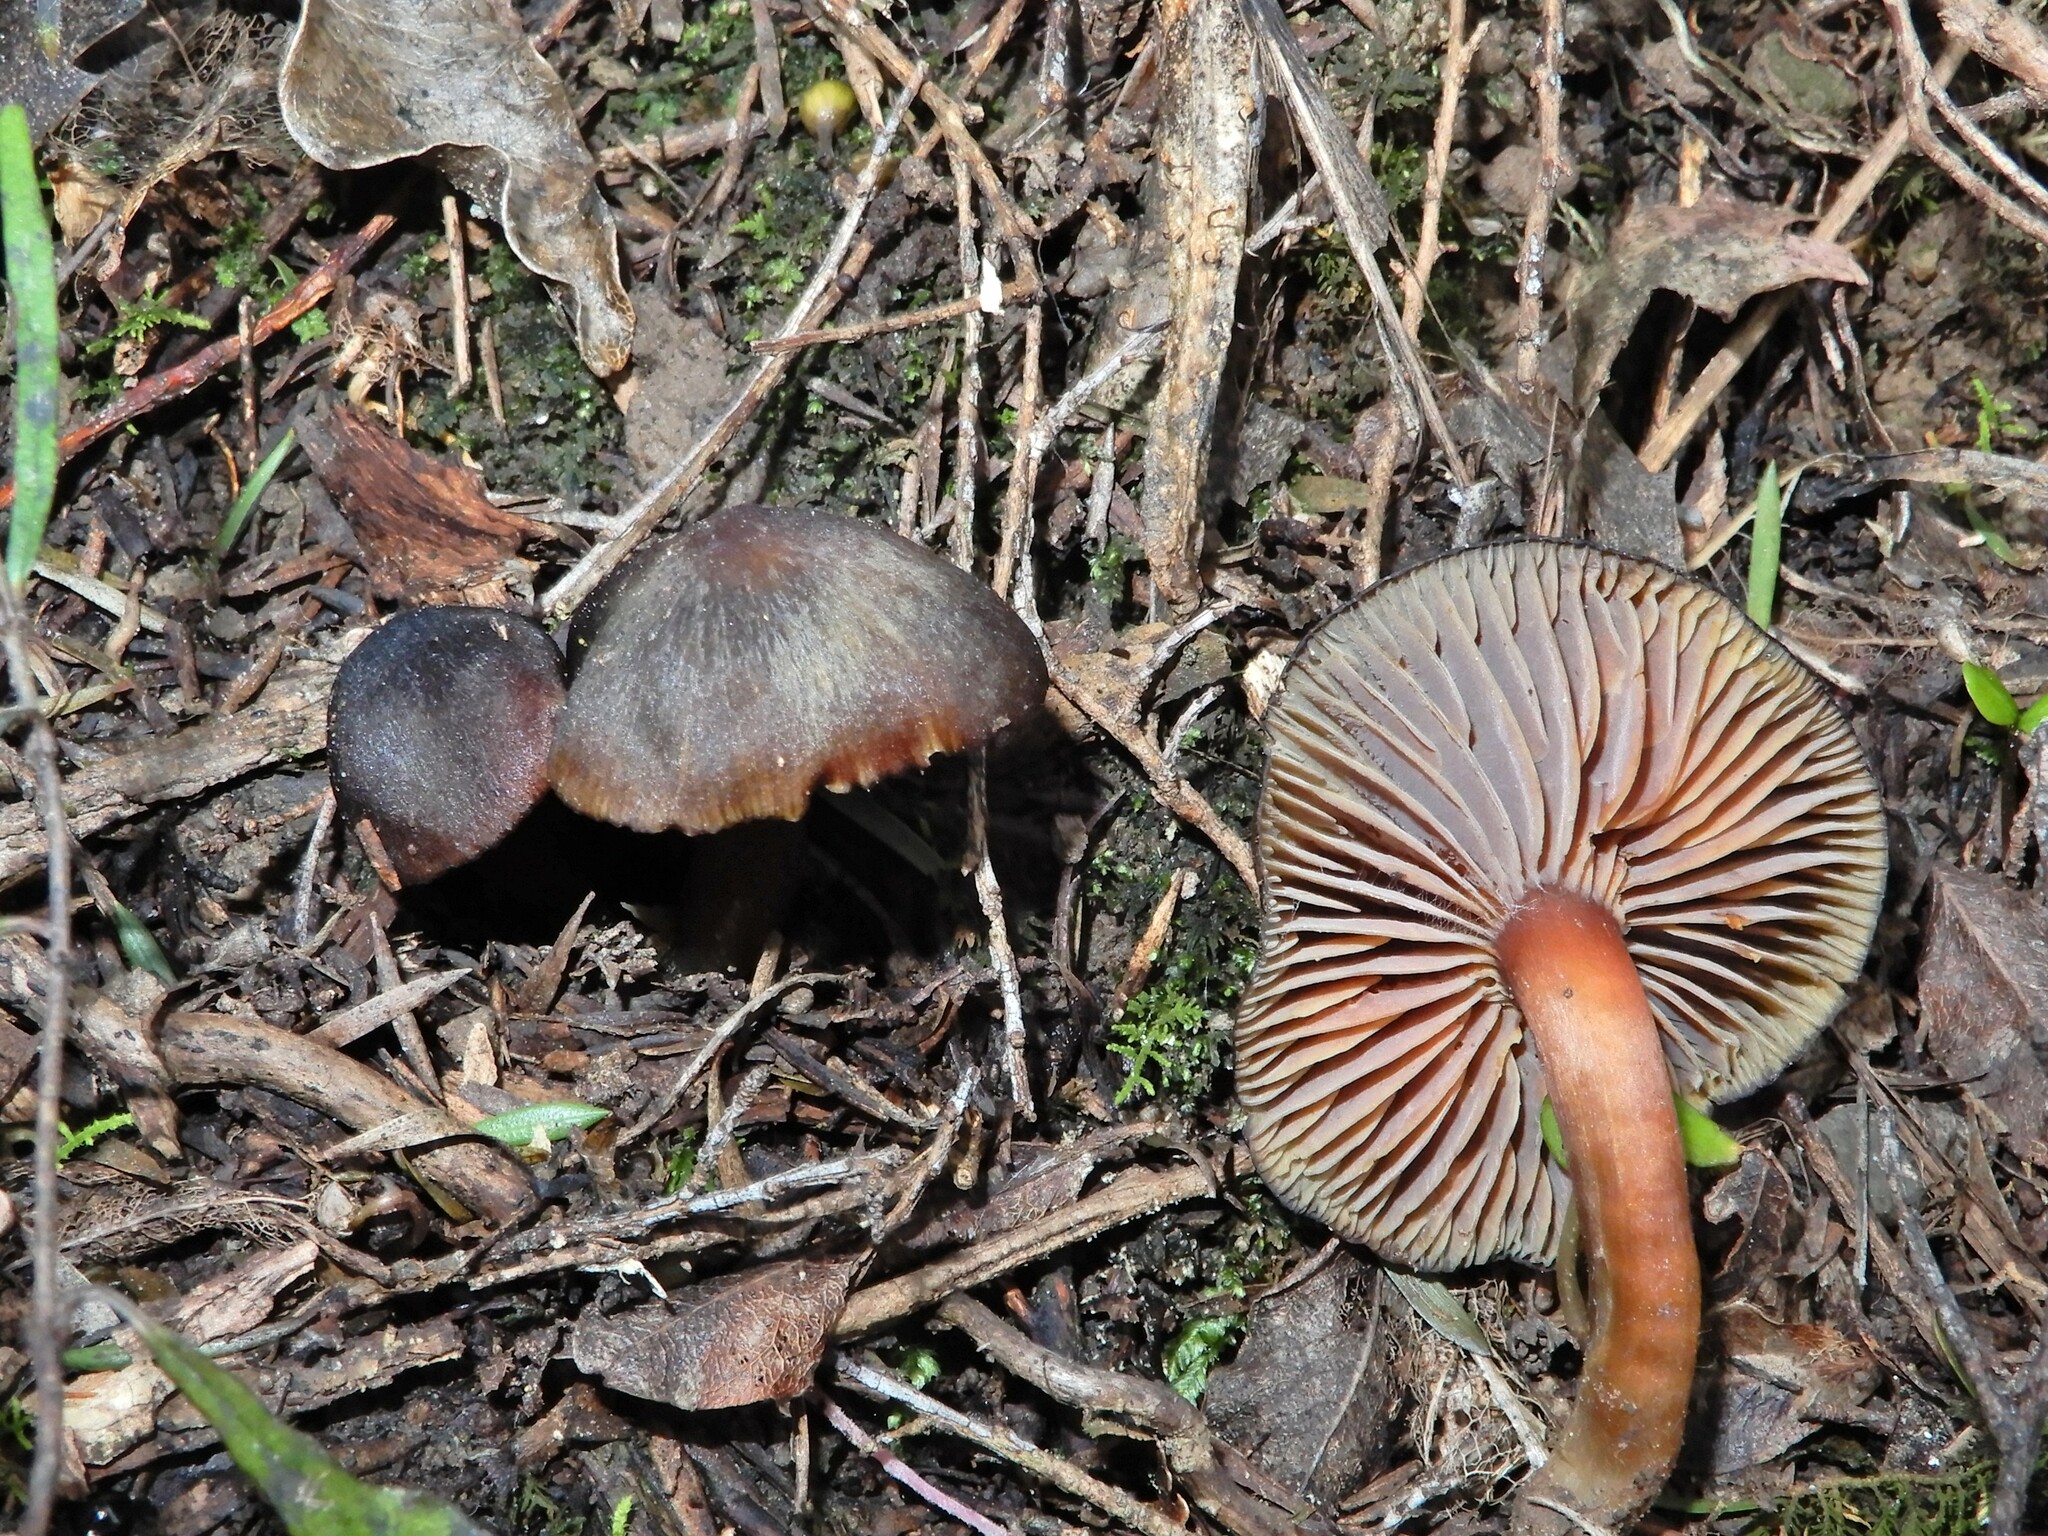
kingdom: Fungi
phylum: Basidiomycota
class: Agaricomycetes
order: Agaricales
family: Hygrophoraceae
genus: Humidicutis
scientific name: Humidicutis multicolor
